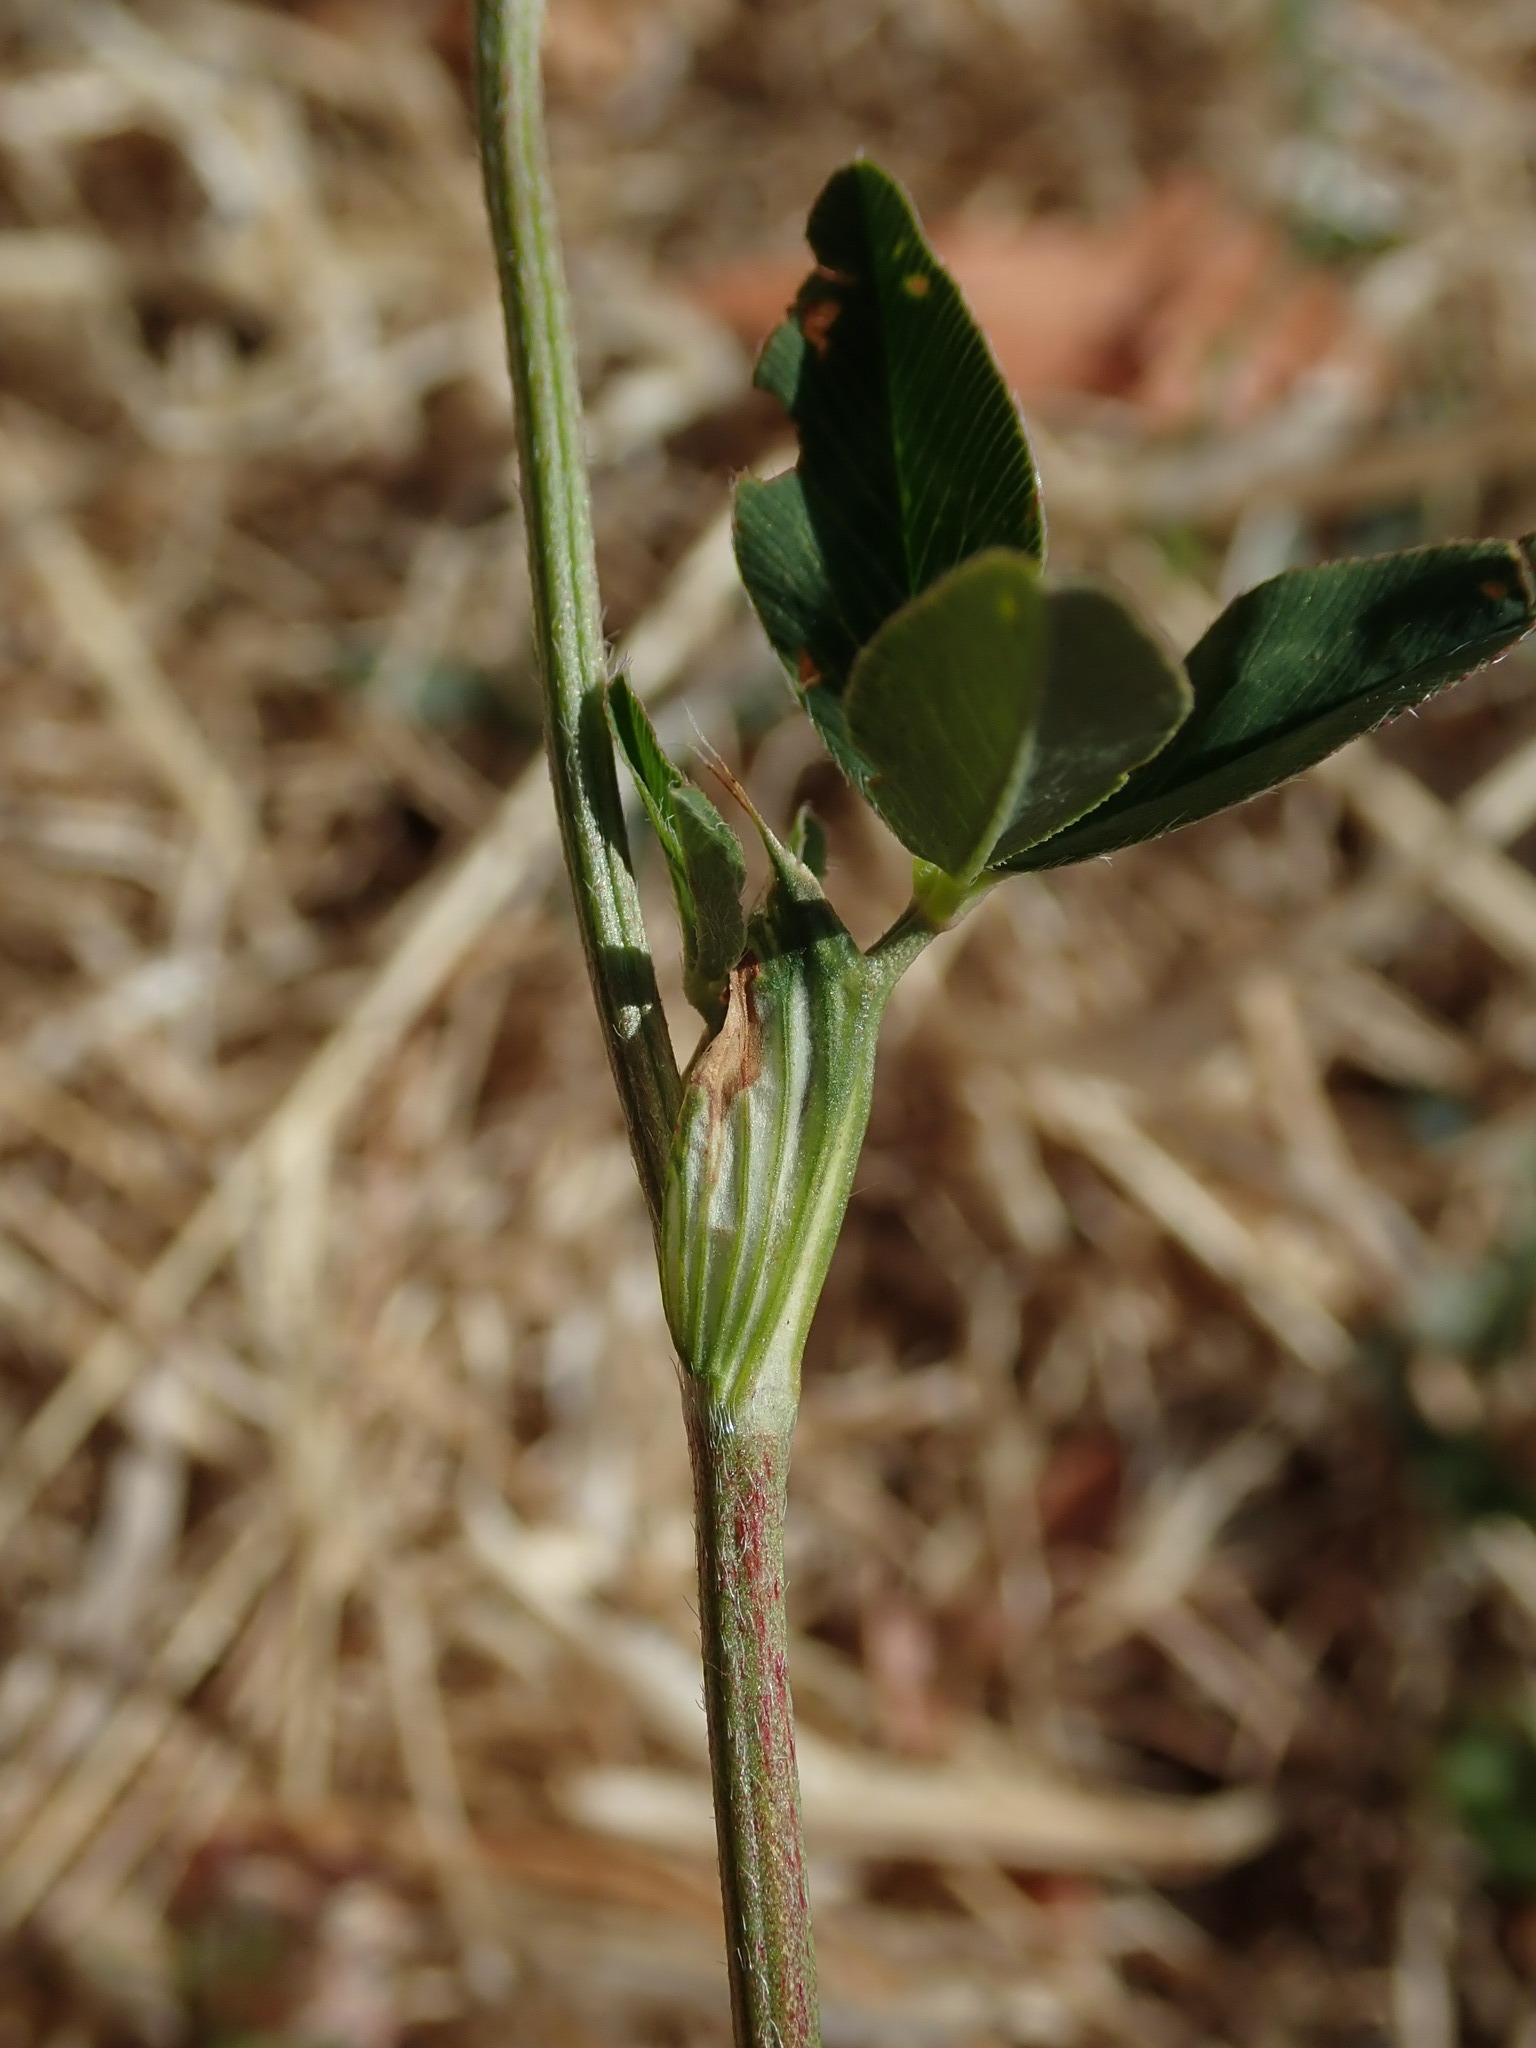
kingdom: Plantae
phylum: Tracheophyta
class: Magnoliopsida
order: Fabales
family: Fabaceae
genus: Trifolium
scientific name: Trifolium pratense
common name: Red clover
